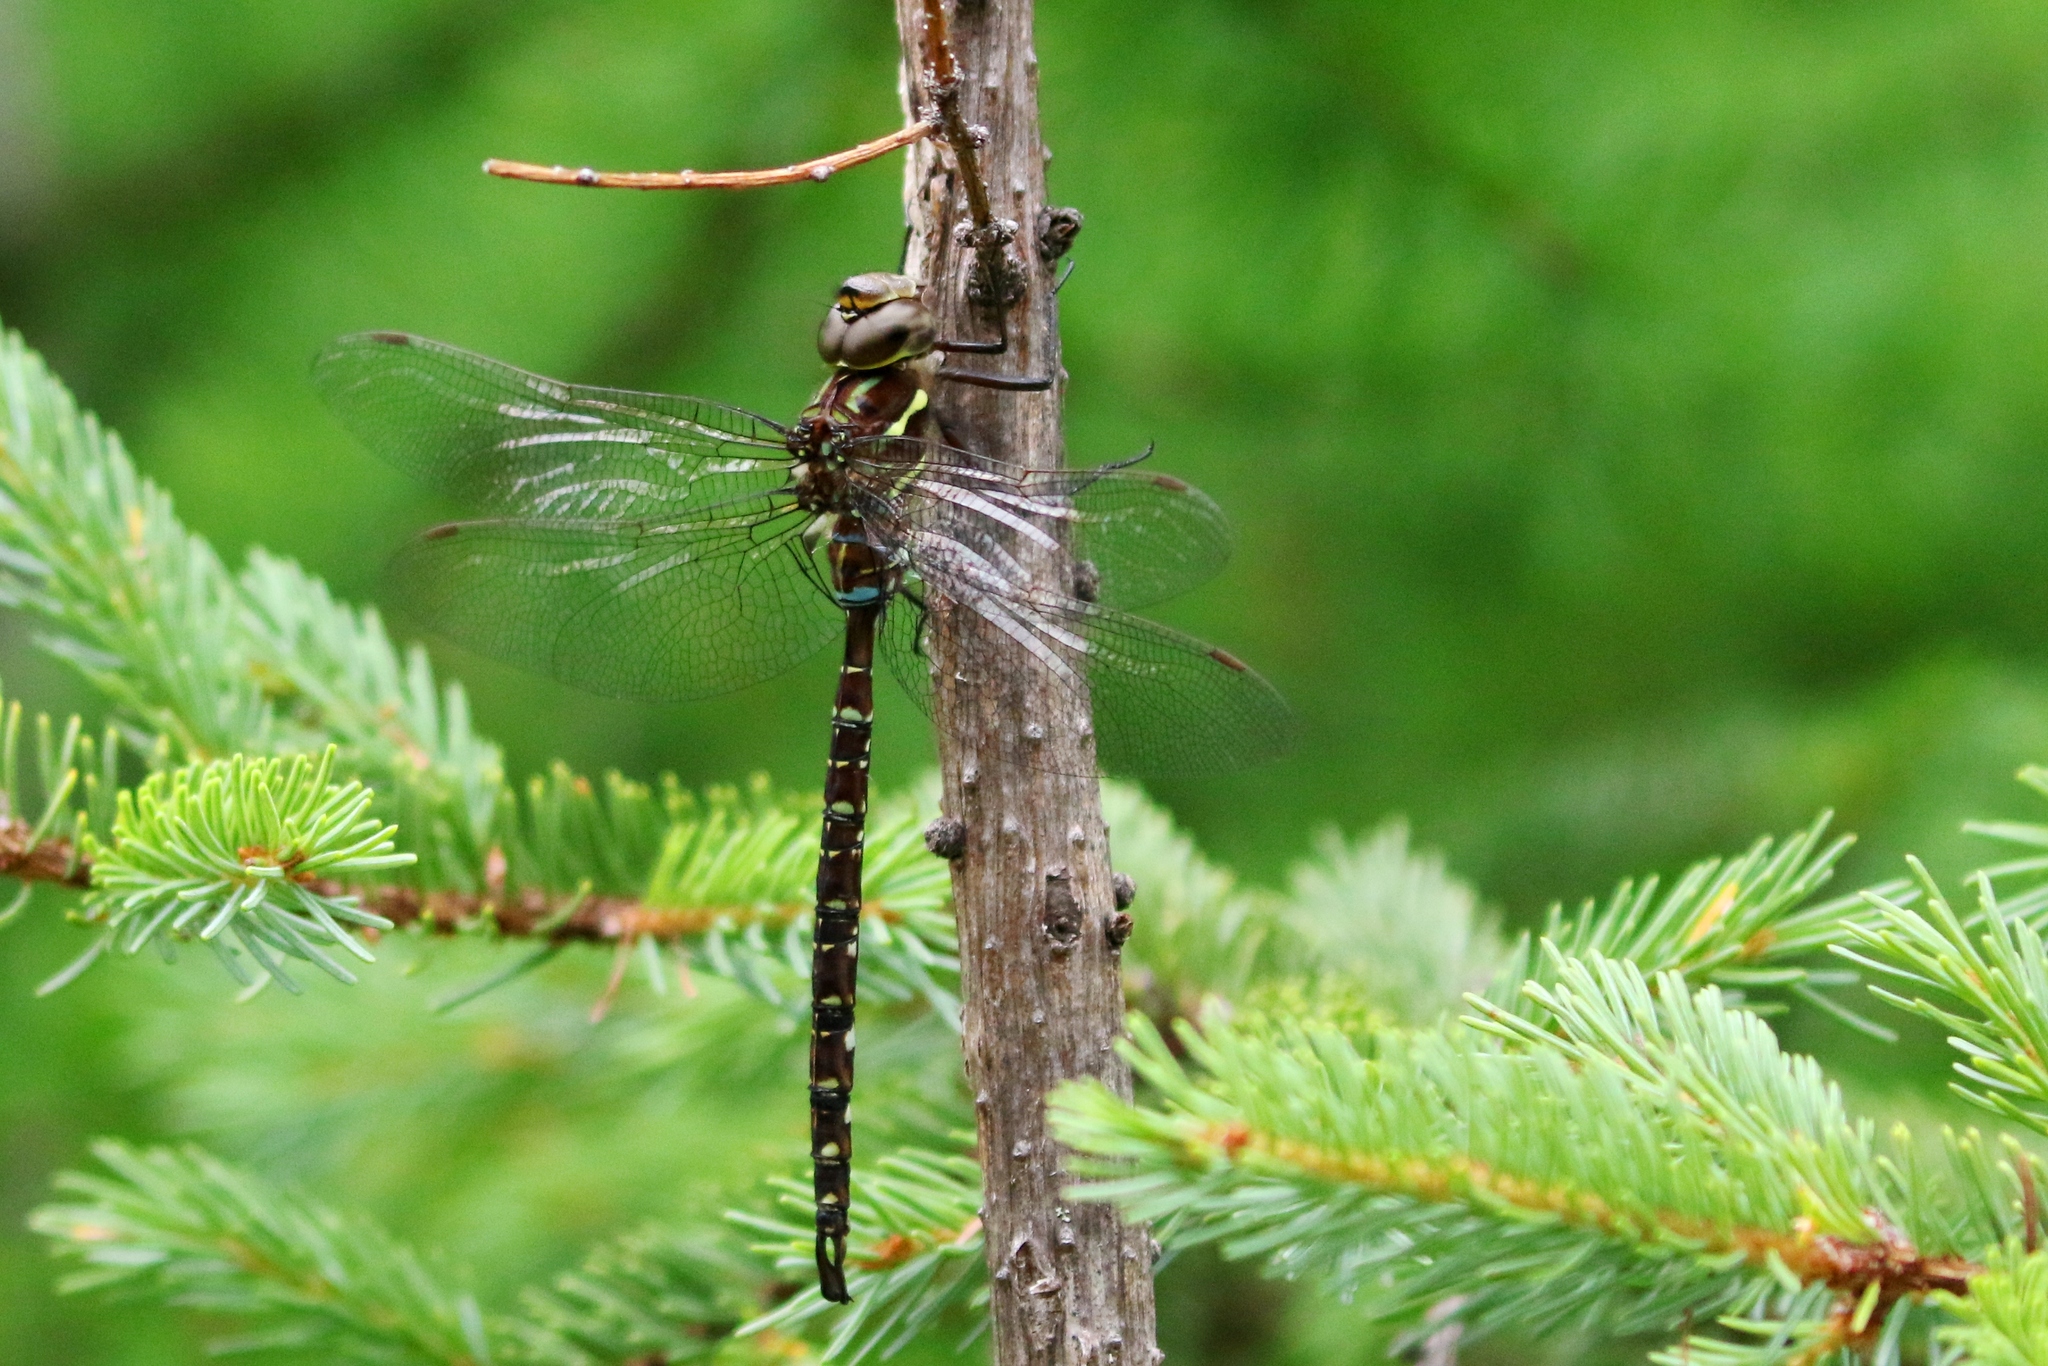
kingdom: Animalia
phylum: Arthropoda
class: Insecta
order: Odonata
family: Aeshnidae
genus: Aeshna
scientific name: Aeshna umbrosa
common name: Shadow darner
